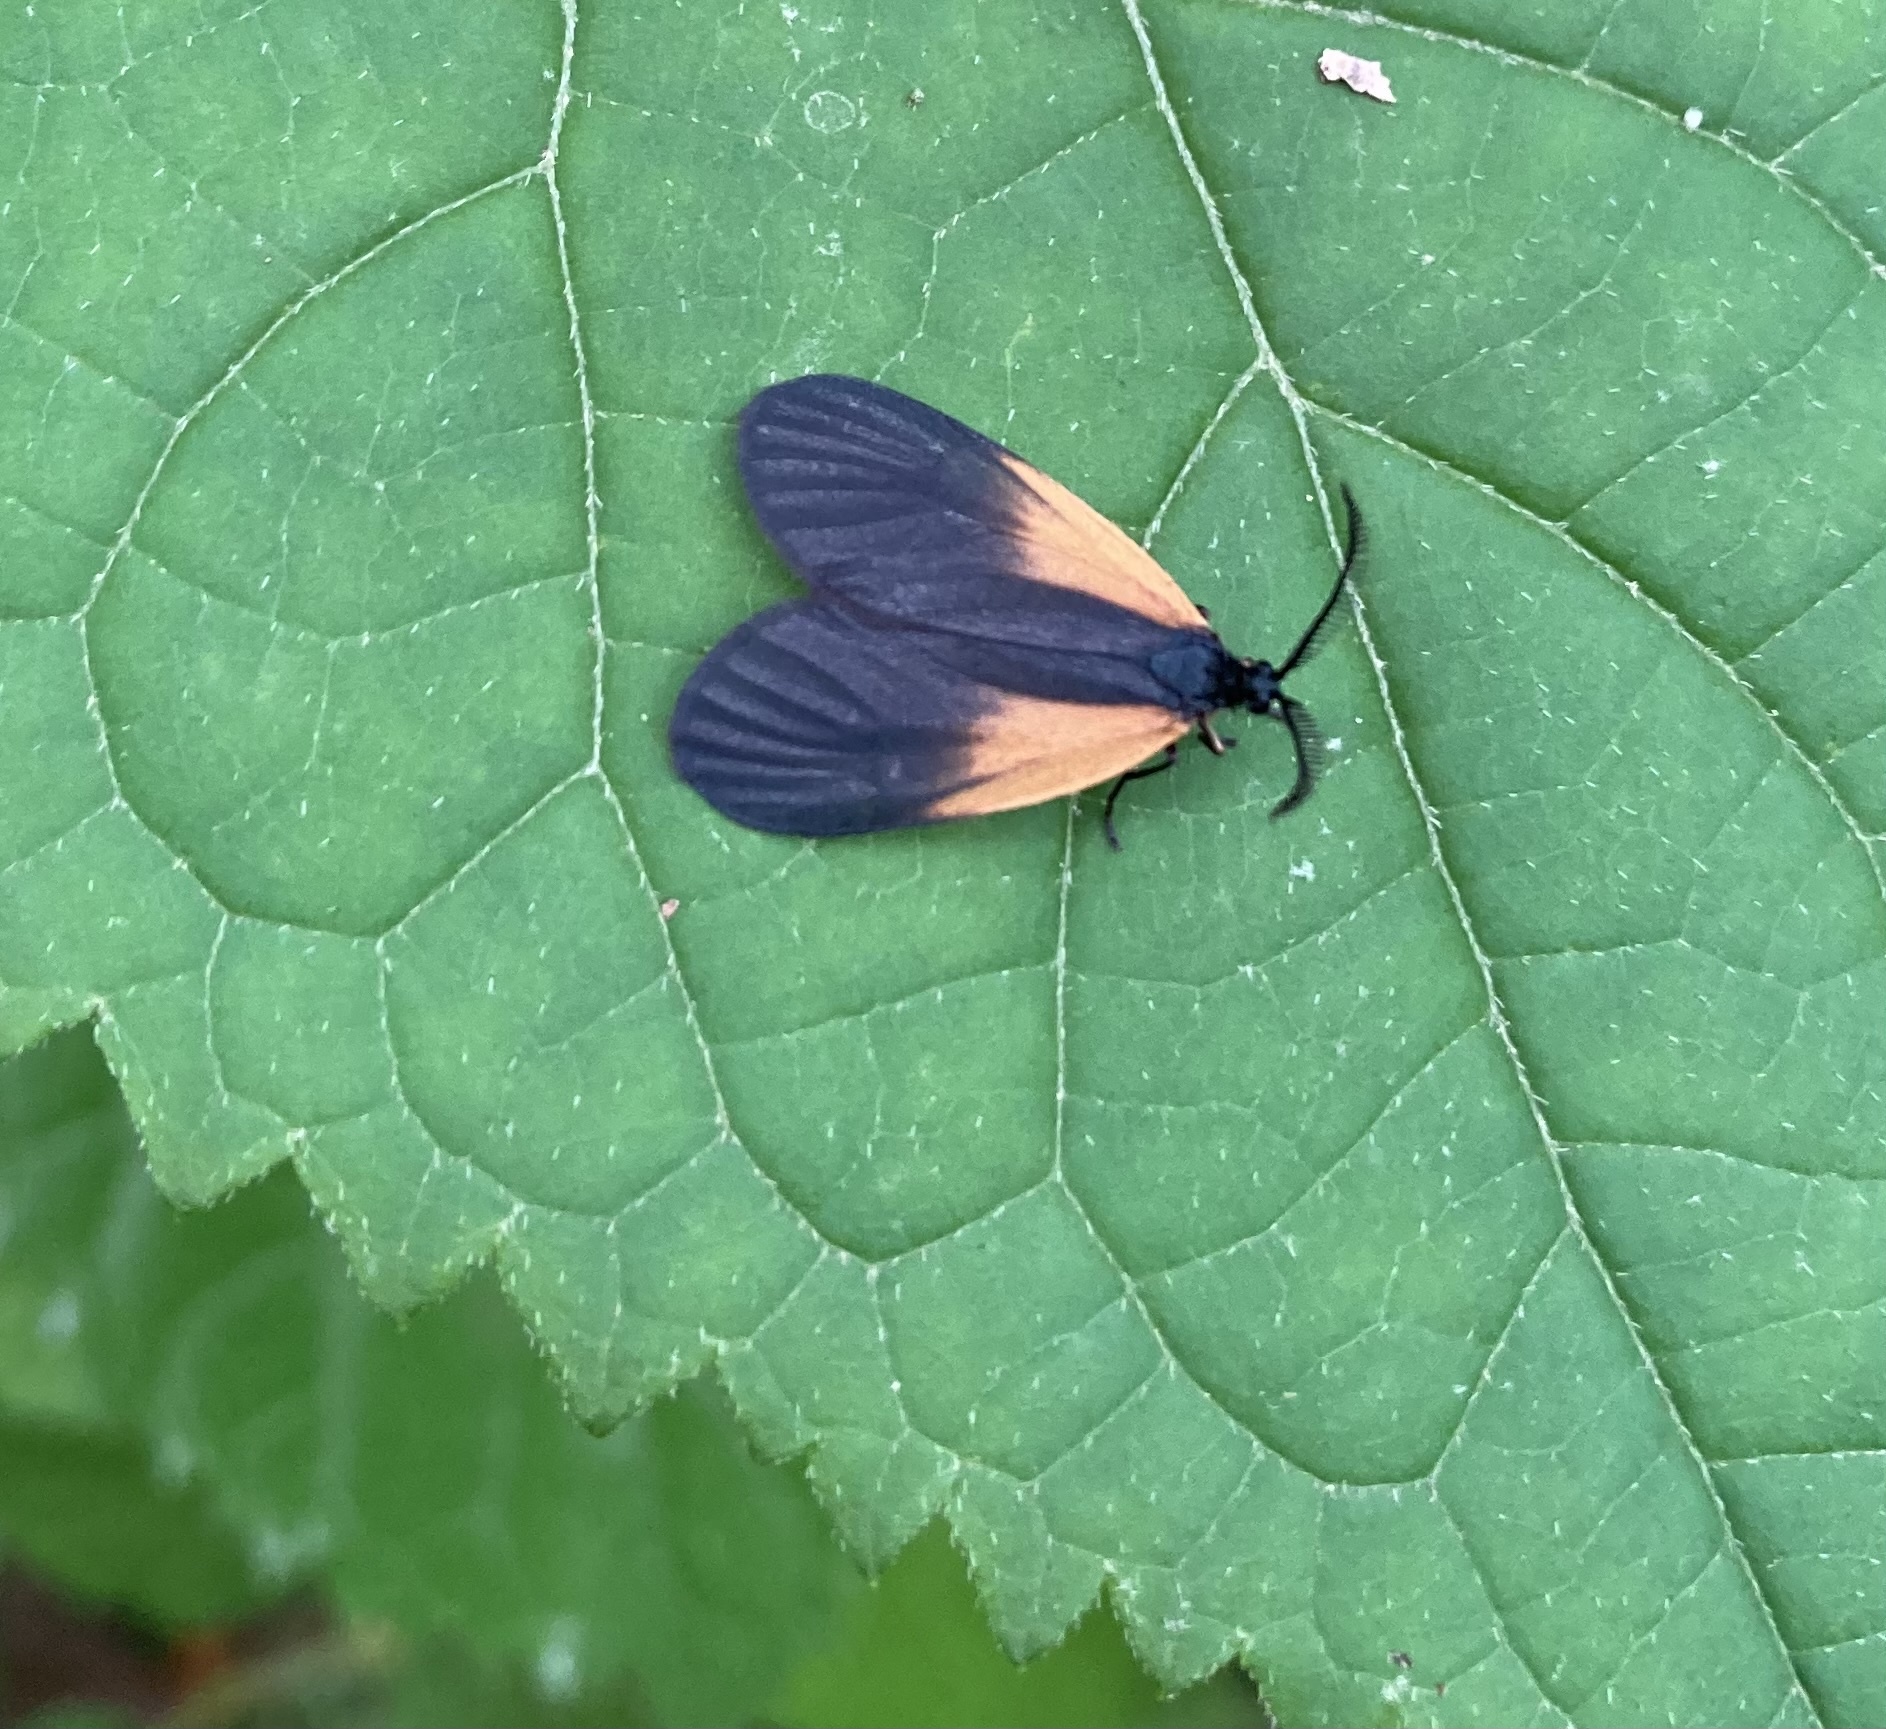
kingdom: Animalia
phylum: Arthropoda
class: Insecta
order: Lepidoptera
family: Zygaenidae
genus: Malthaca
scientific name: Malthaca dimidiata
